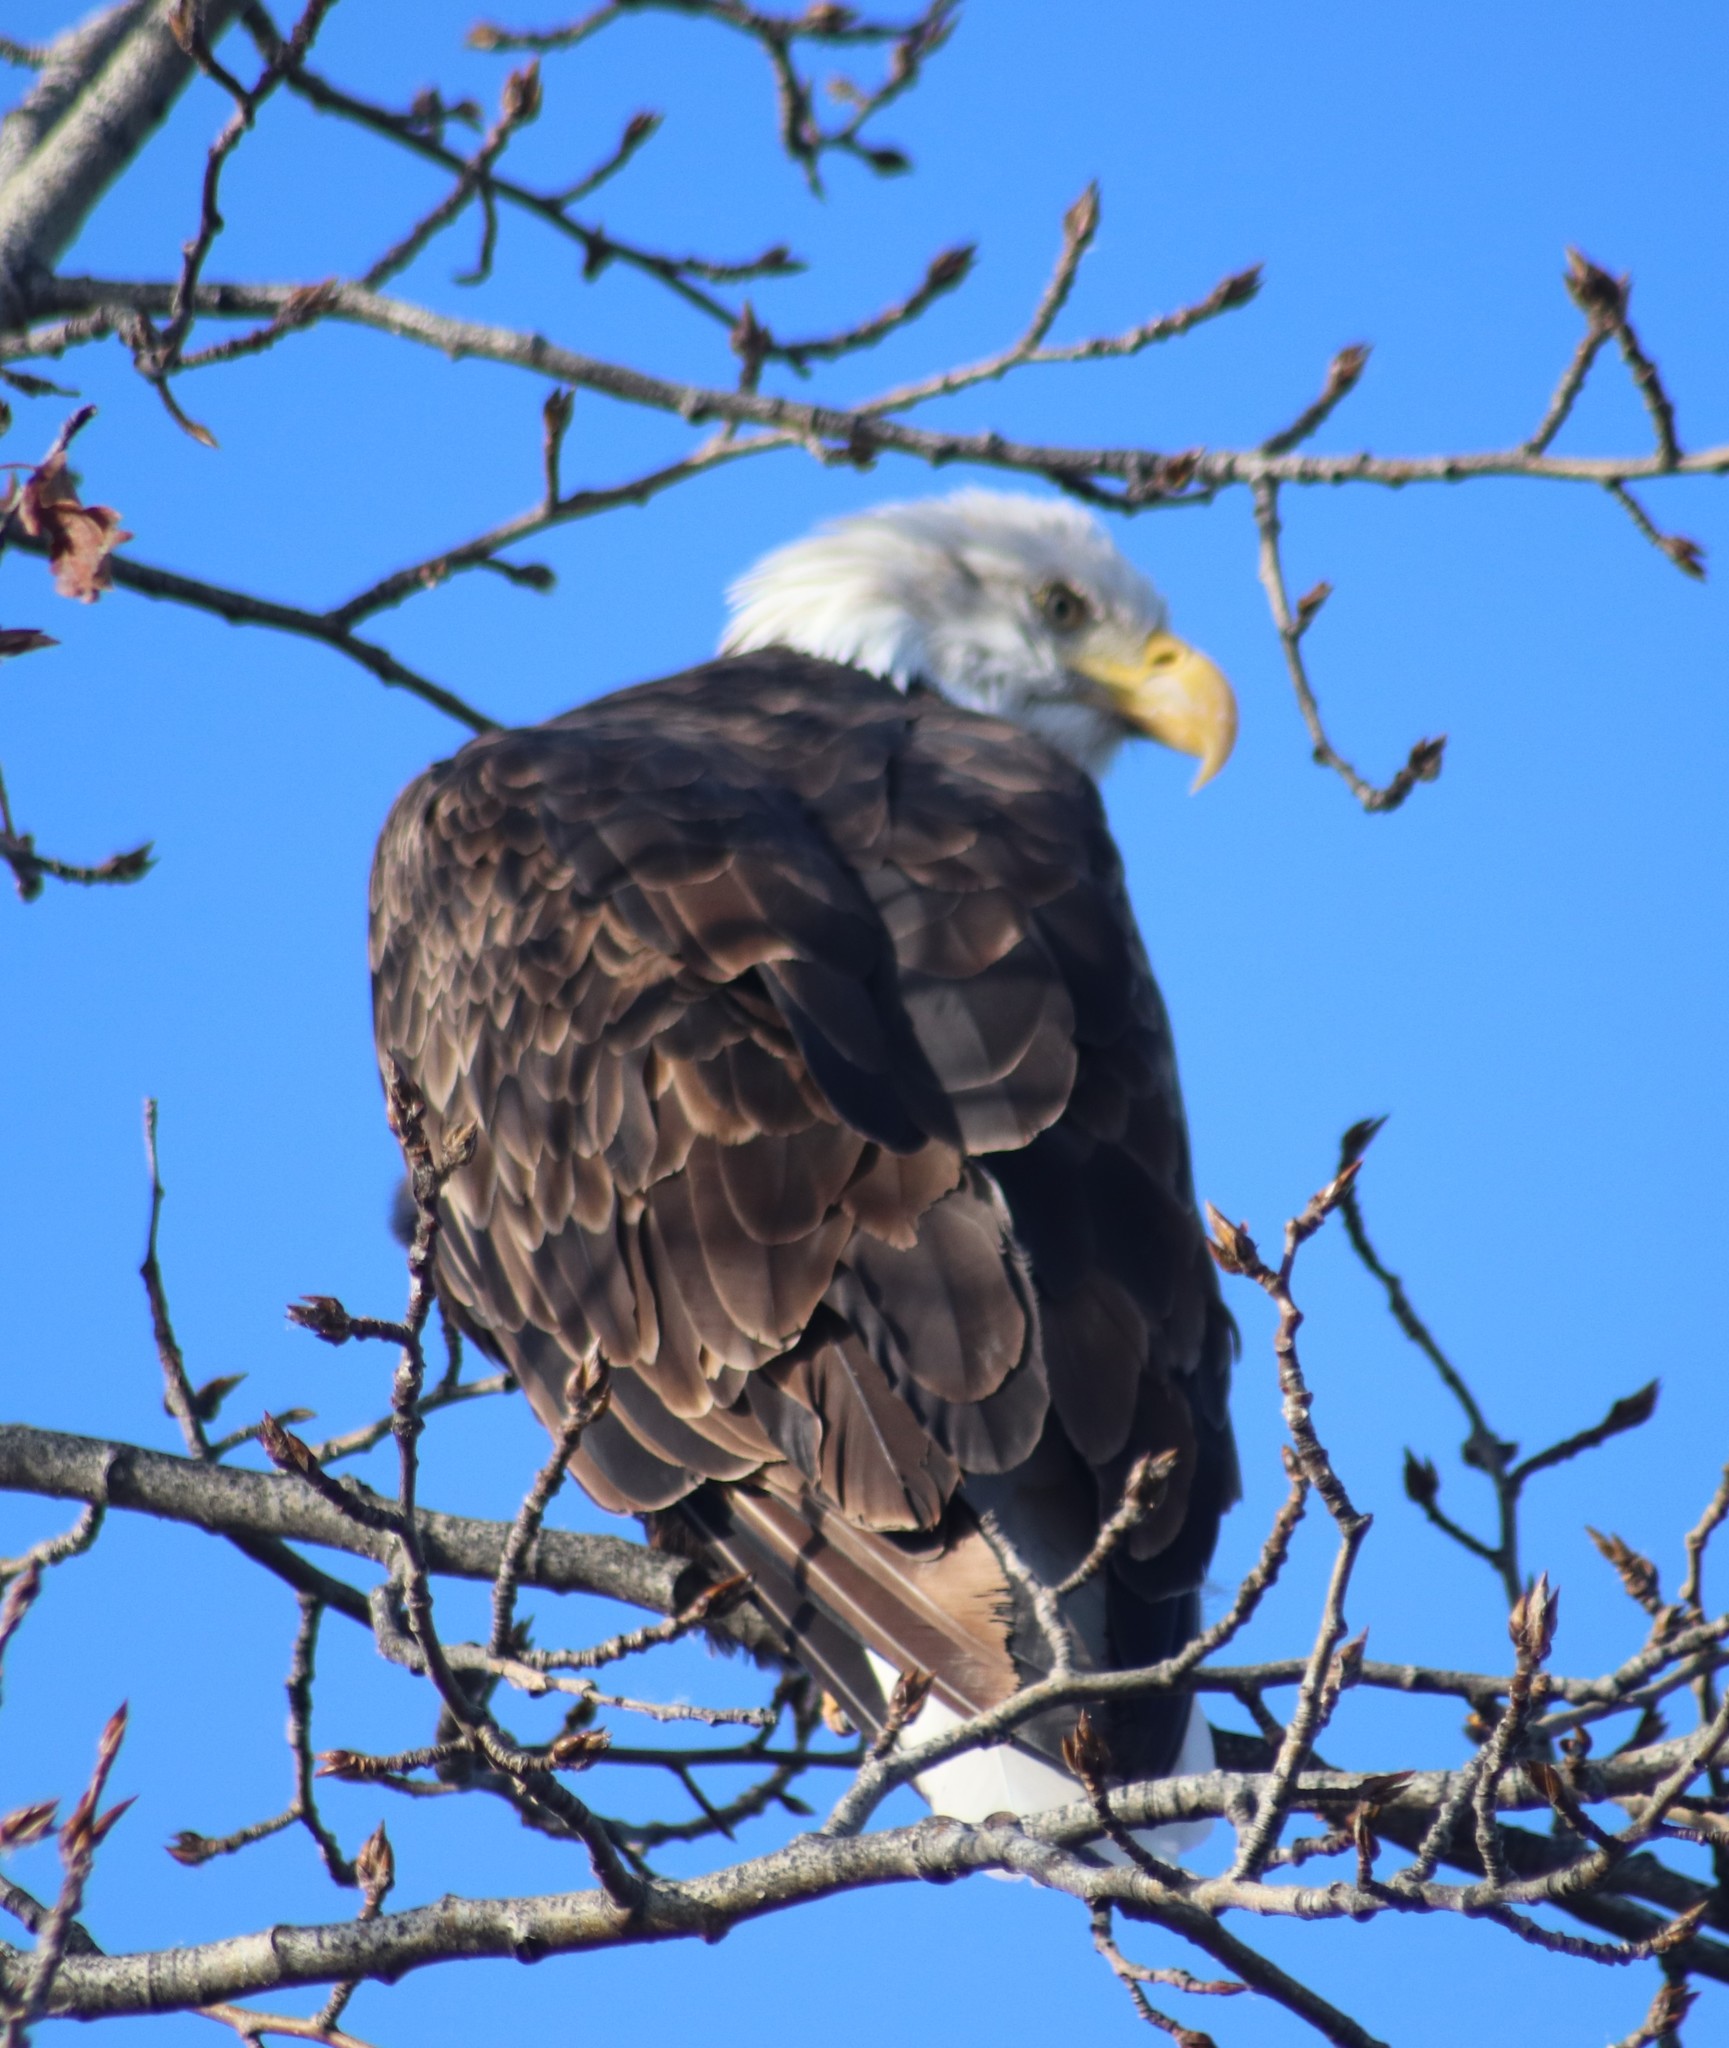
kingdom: Animalia
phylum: Chordata
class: Aves
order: Accipitriformes
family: Accipitridae
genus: Haliaeetus
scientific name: Haliaeetus leucocephalus
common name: Bald eagle
